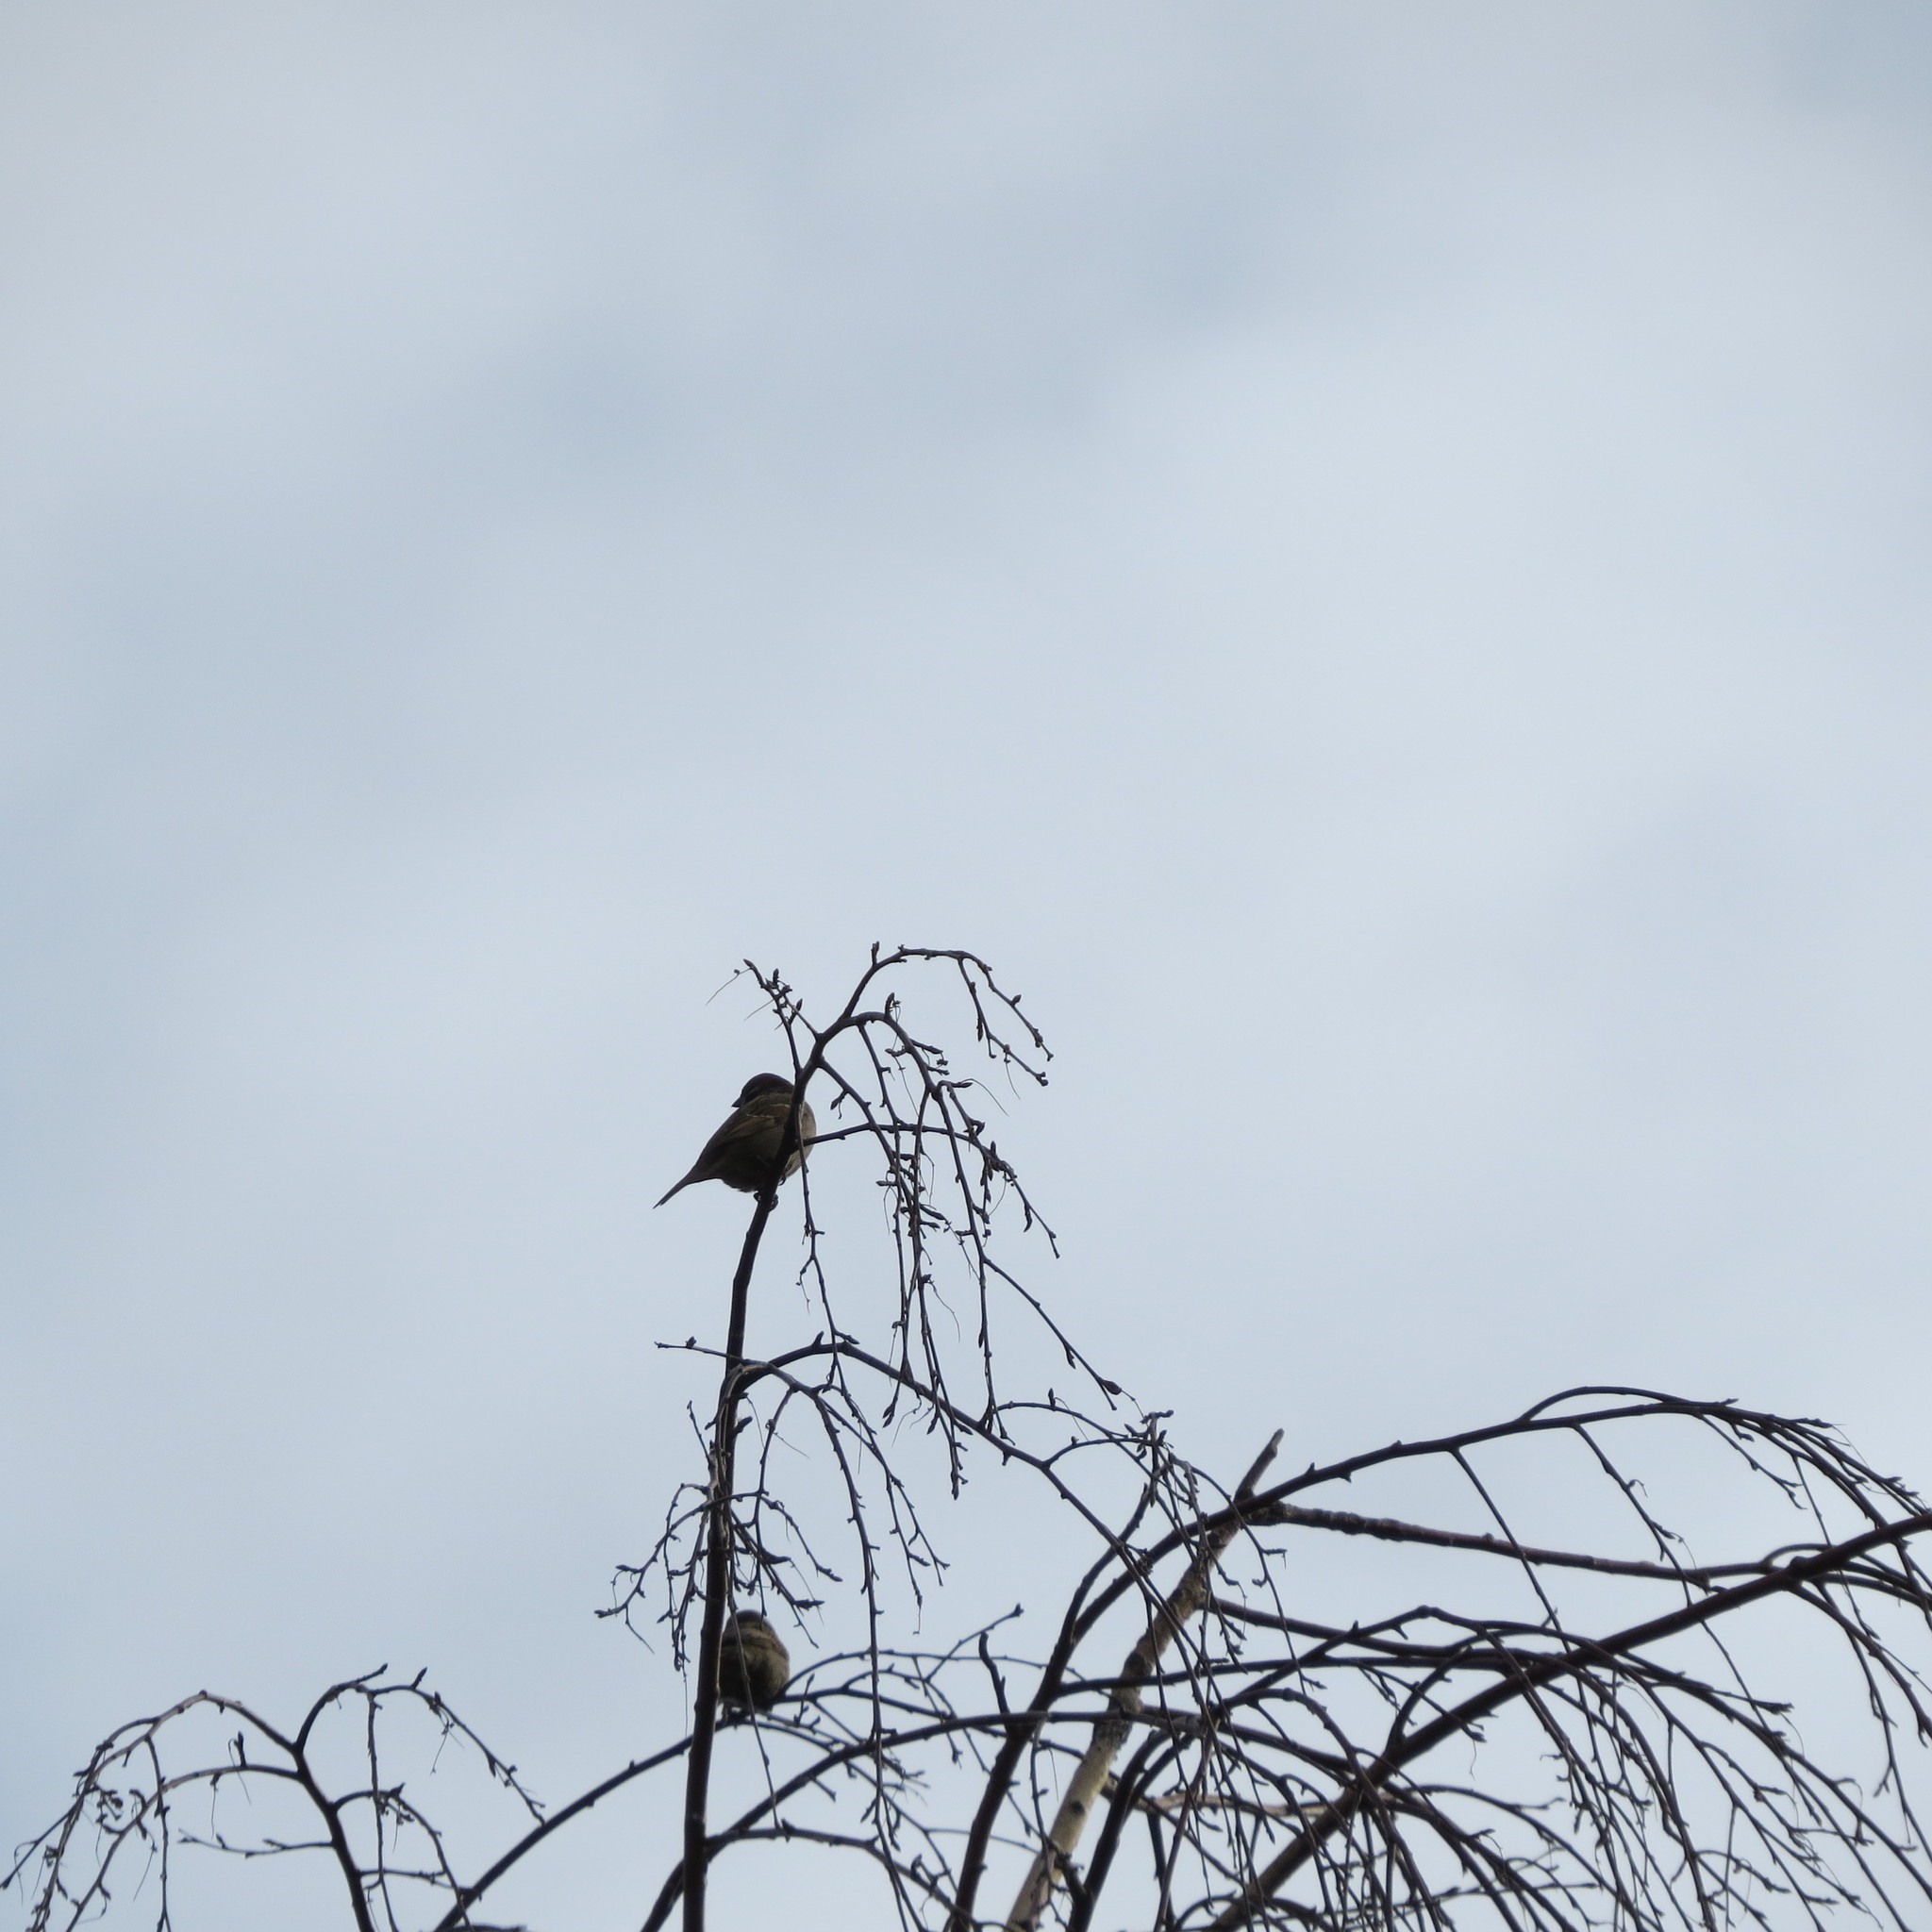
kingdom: Animalia
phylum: Chordata
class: Aves
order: Passeriformes
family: Passeridae
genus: Passer
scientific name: Passer montanus
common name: Eurasian tree sparrow
